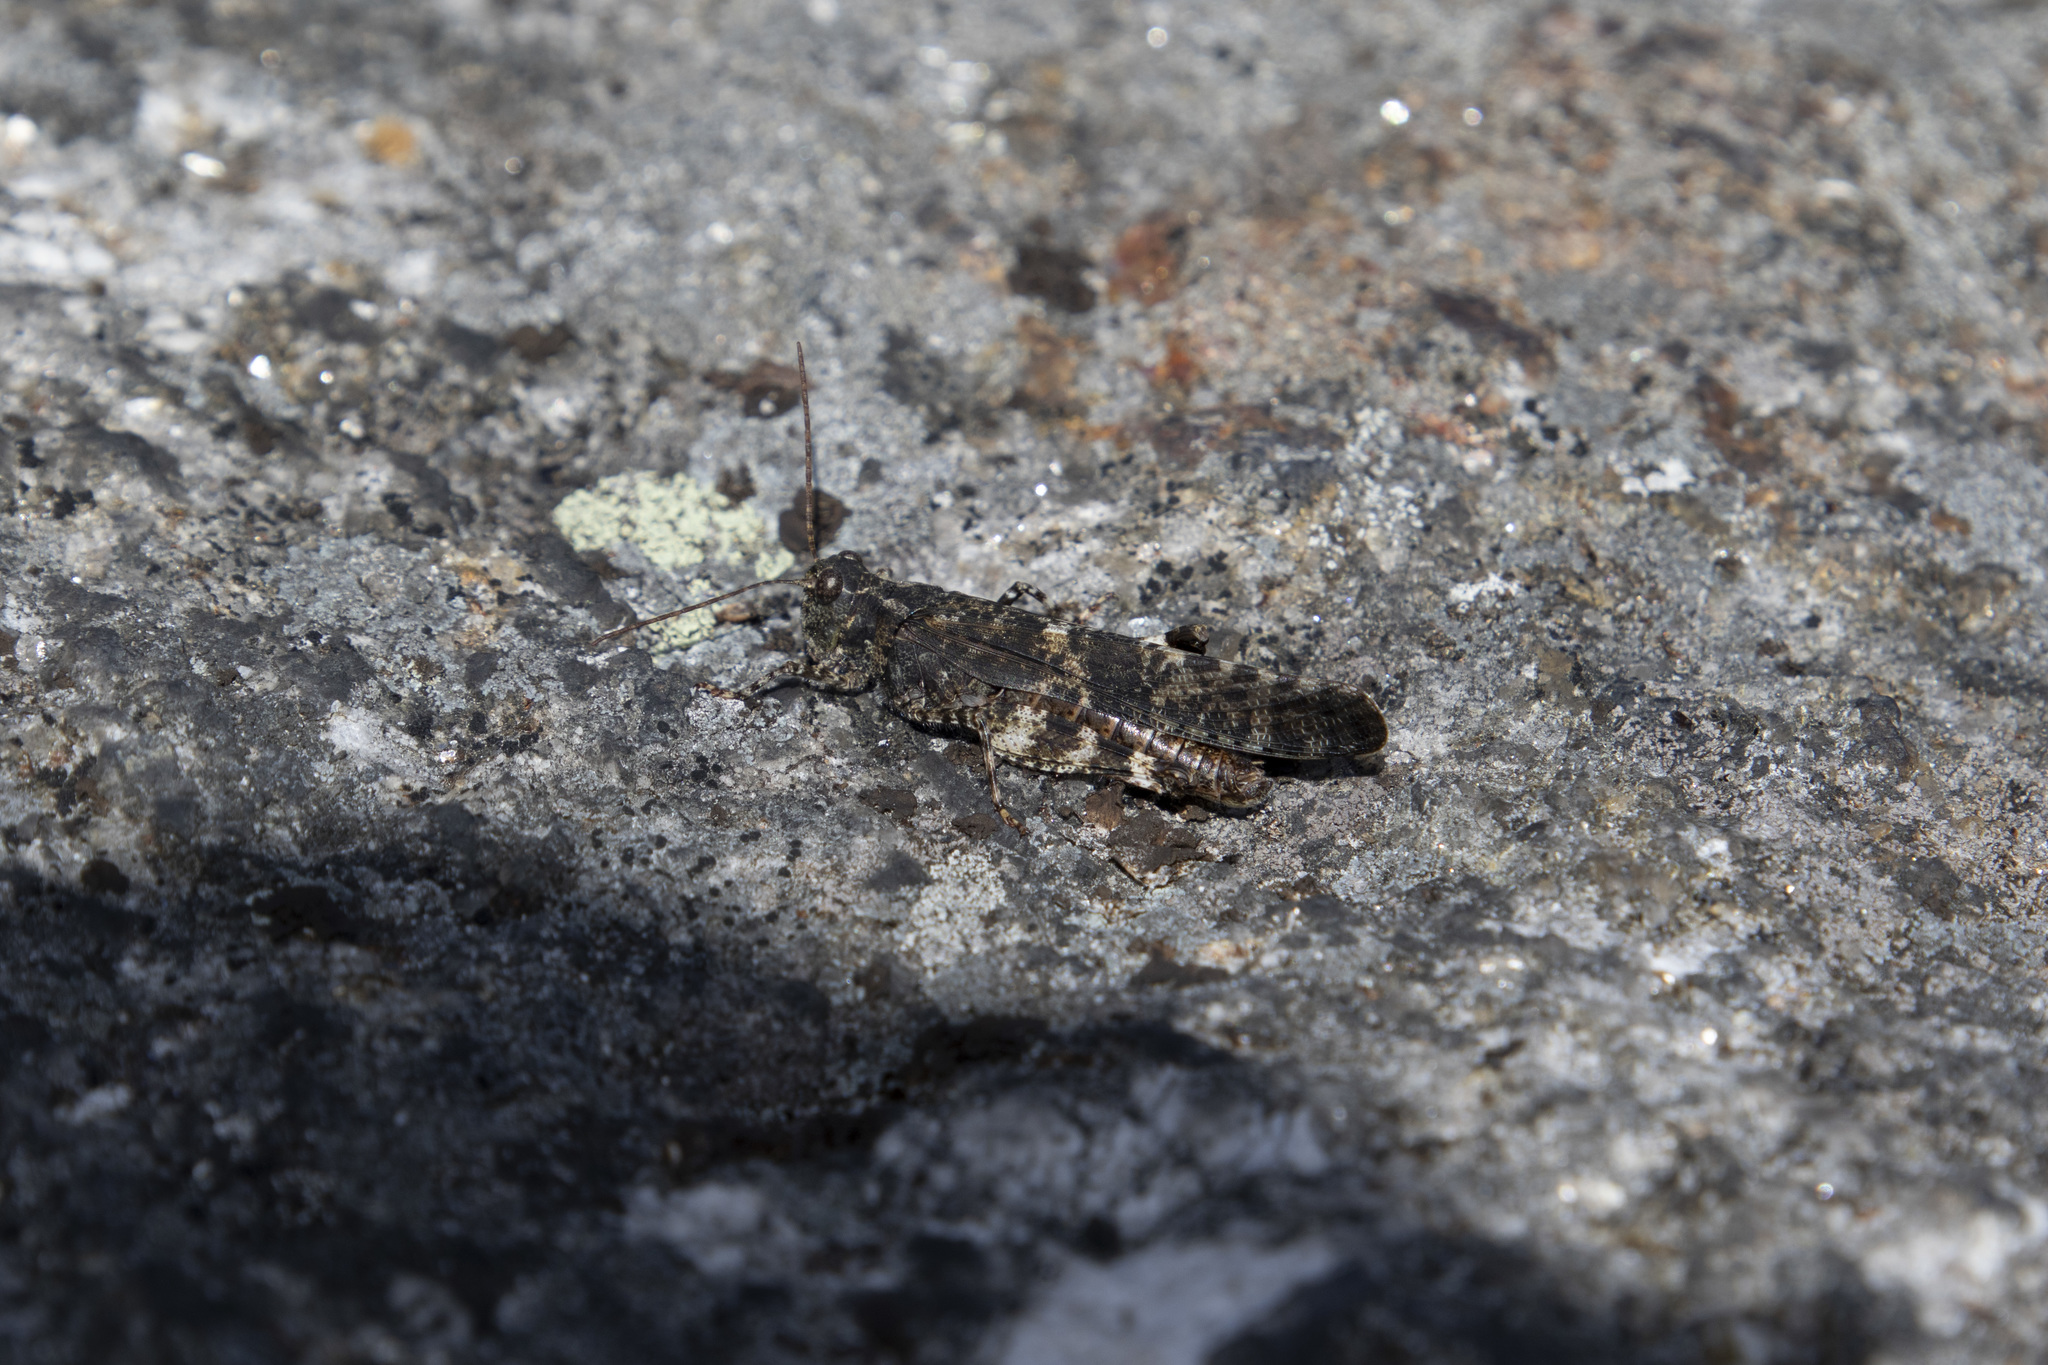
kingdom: Animalia
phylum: Arthropoda
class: Insecta
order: Orthoptera
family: Acrididae
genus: Trimerotropis
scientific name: Trimerotropis verruculata
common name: Crackling forest grasshopper
